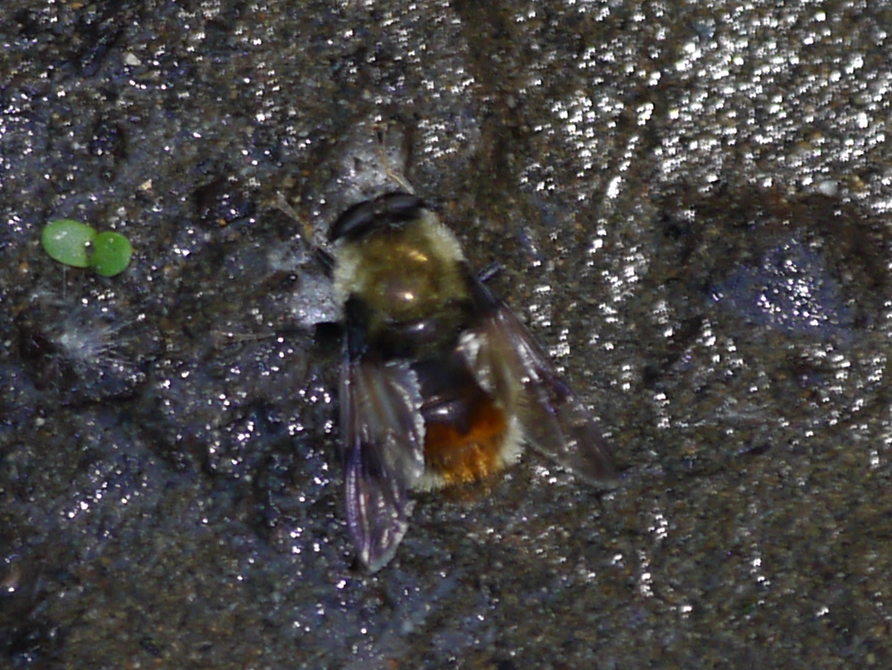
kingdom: Animalia
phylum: Arthropoda
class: Insecta
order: Diptera
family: Syrphidae
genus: Sericomyia
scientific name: Sericomyia flagrans
